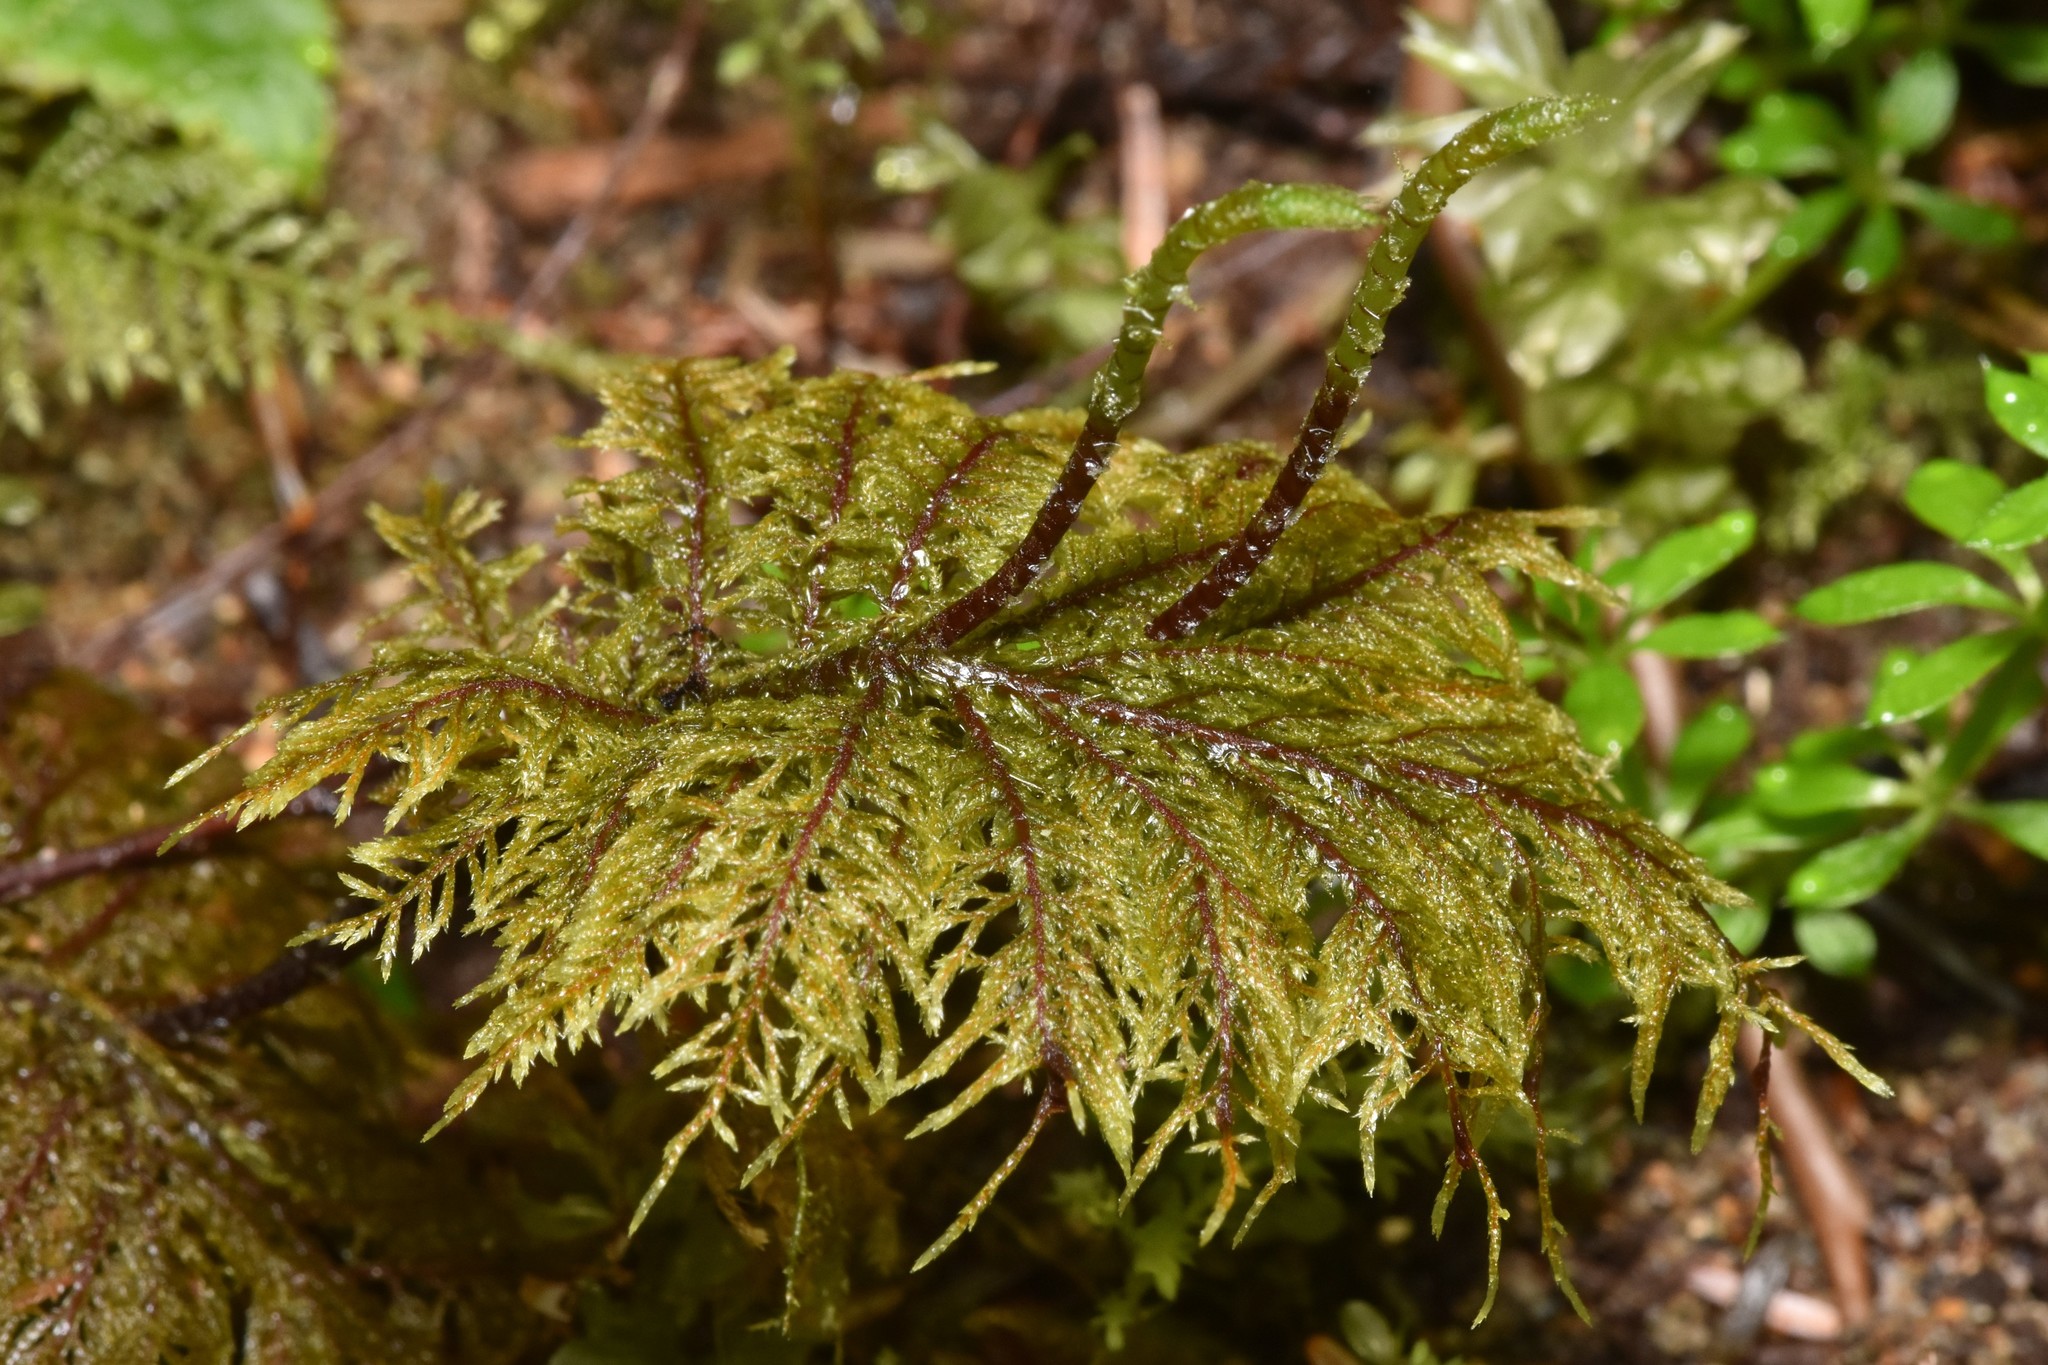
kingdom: Plantae
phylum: Bryophyta
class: Bryopsida
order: Hypnales
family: Hylocomiaceae
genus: Hylocomium
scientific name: Hylocomium splendens
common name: Stairstep moss
